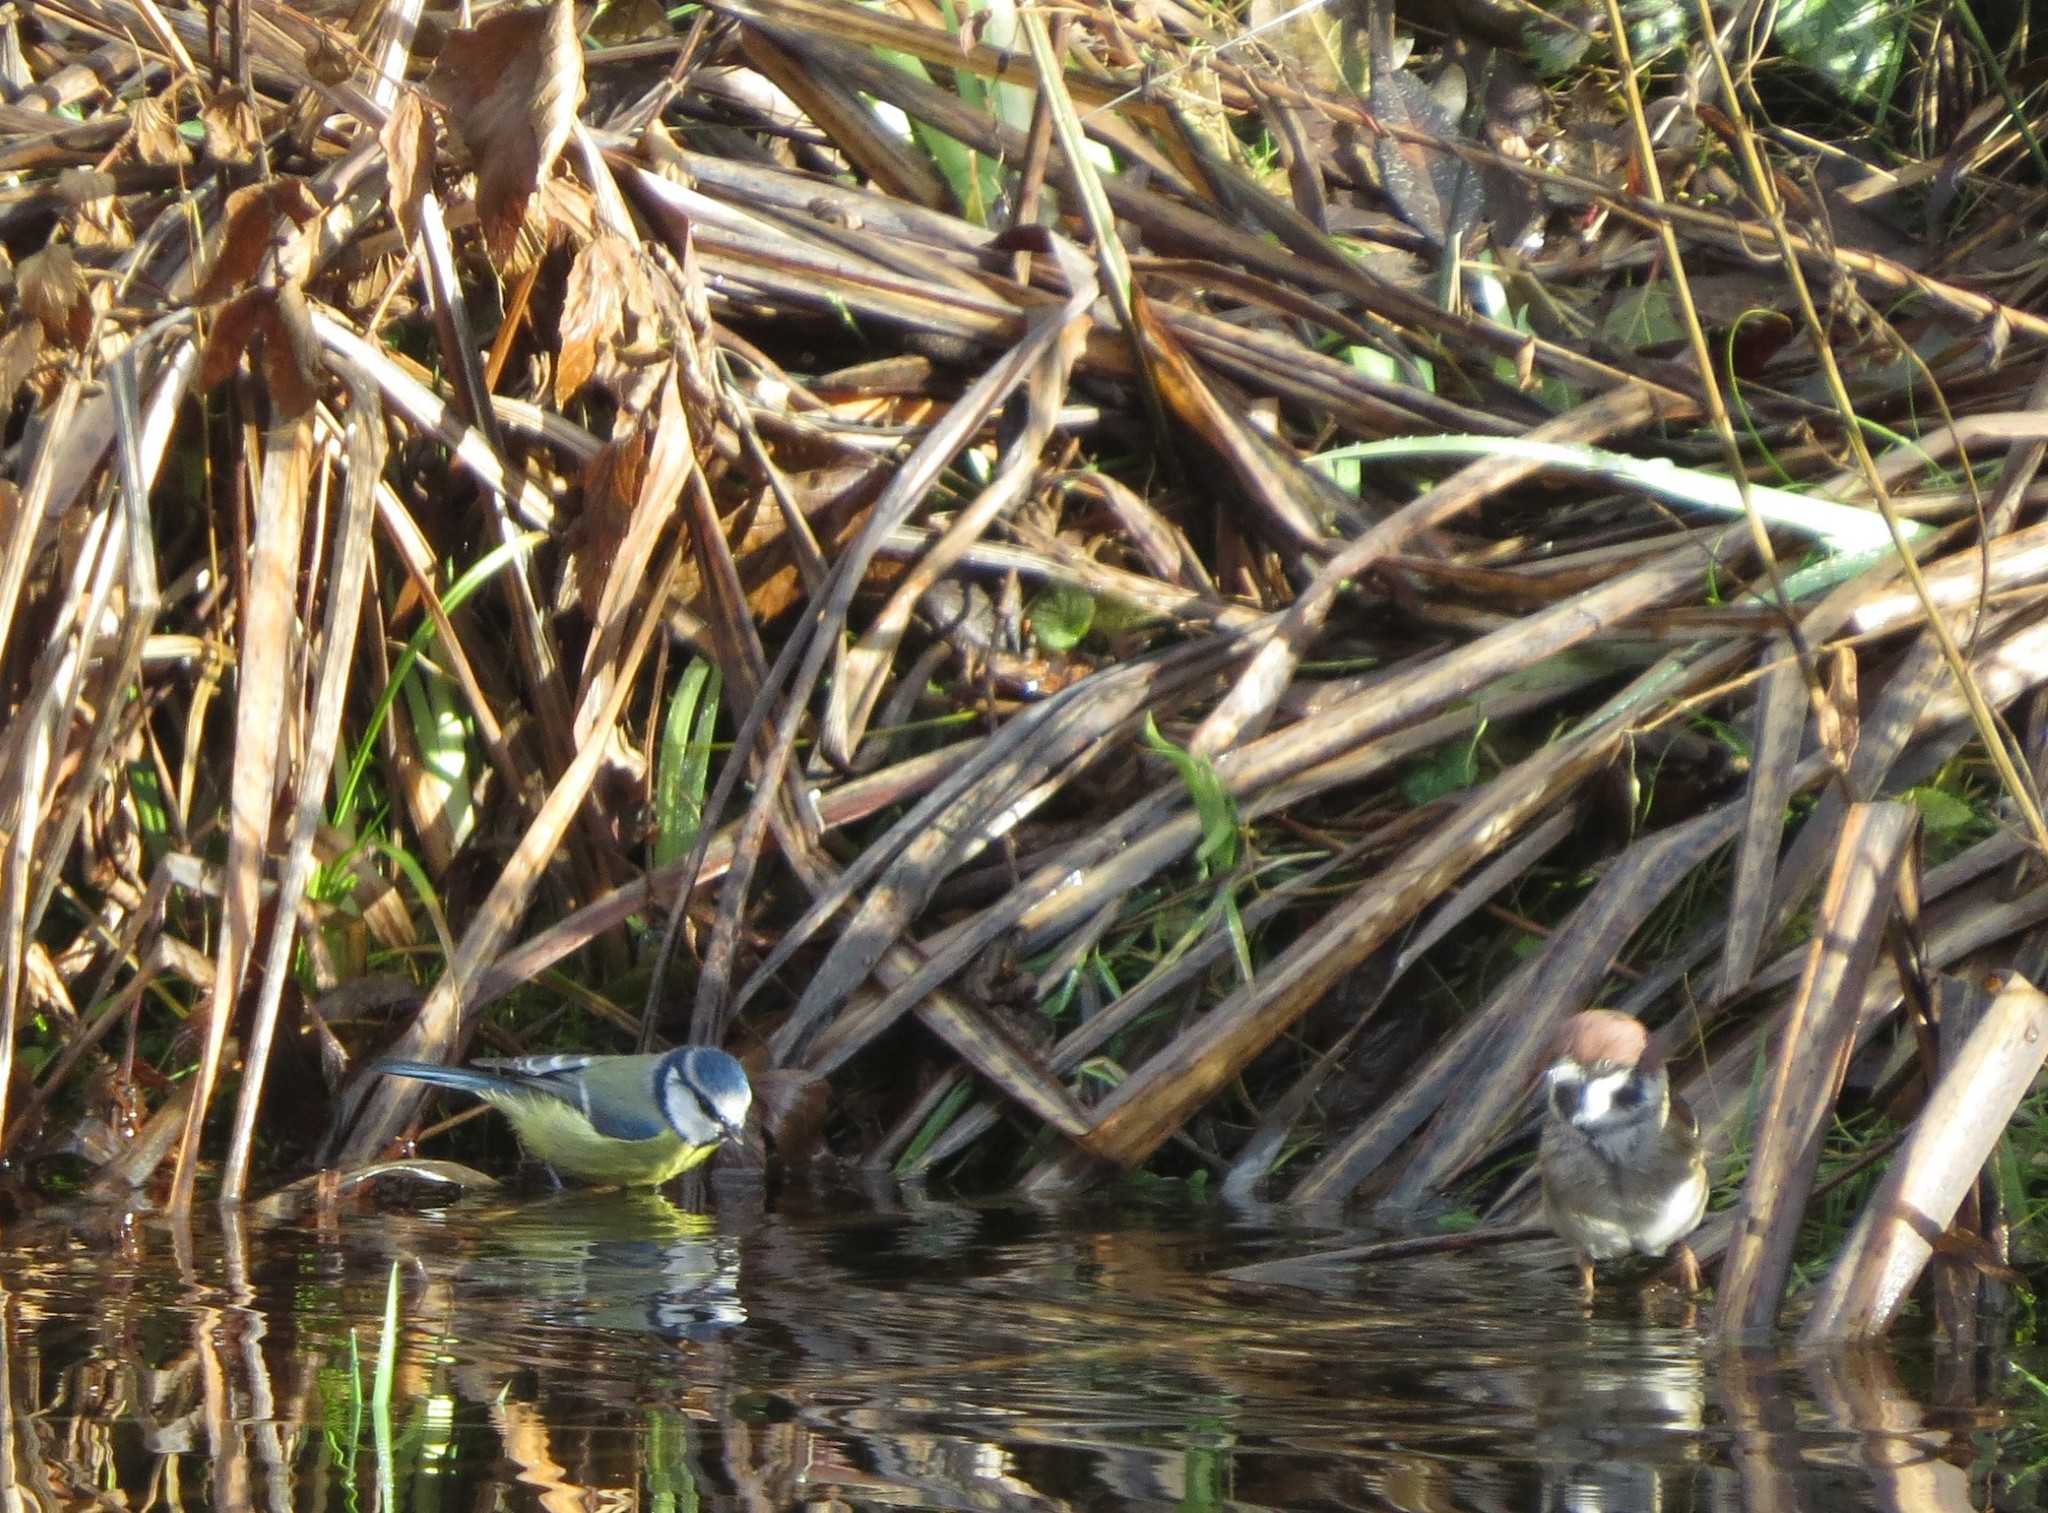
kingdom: Animalia
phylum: Chordata
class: Aves
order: Passeriformes
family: Paridae
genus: Cyanistes
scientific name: Cyanistes caeruleus
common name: Eurasian blue tit
